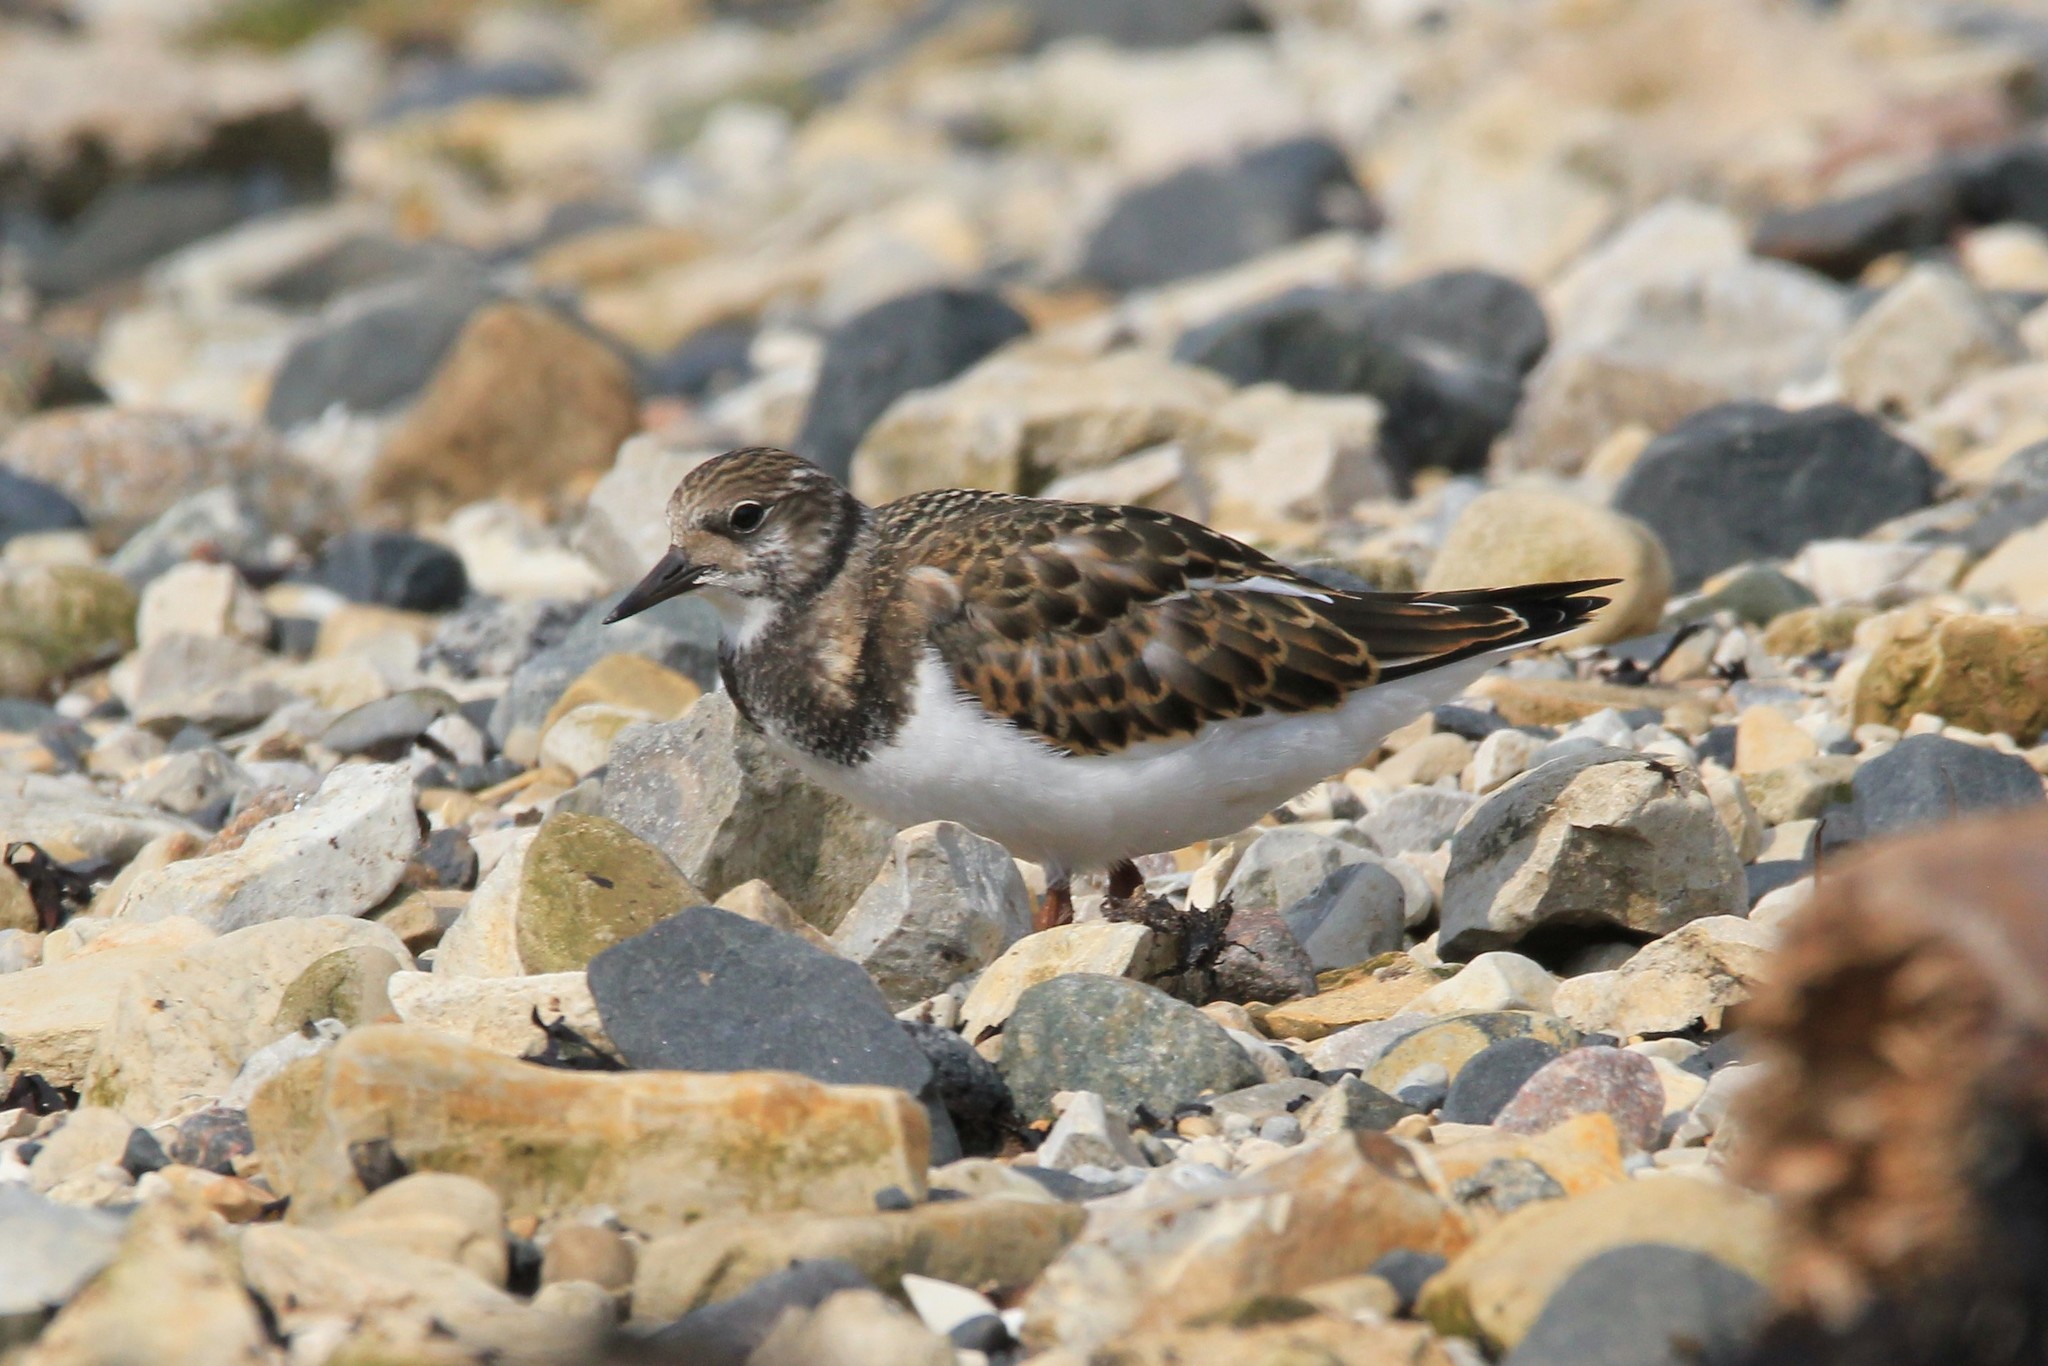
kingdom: Animalia
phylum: Chordata
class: Aves
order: Charadriiformes
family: Scolopacidae
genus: Arenaria
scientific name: Arenaria interpres
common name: Ruddy turnstone
